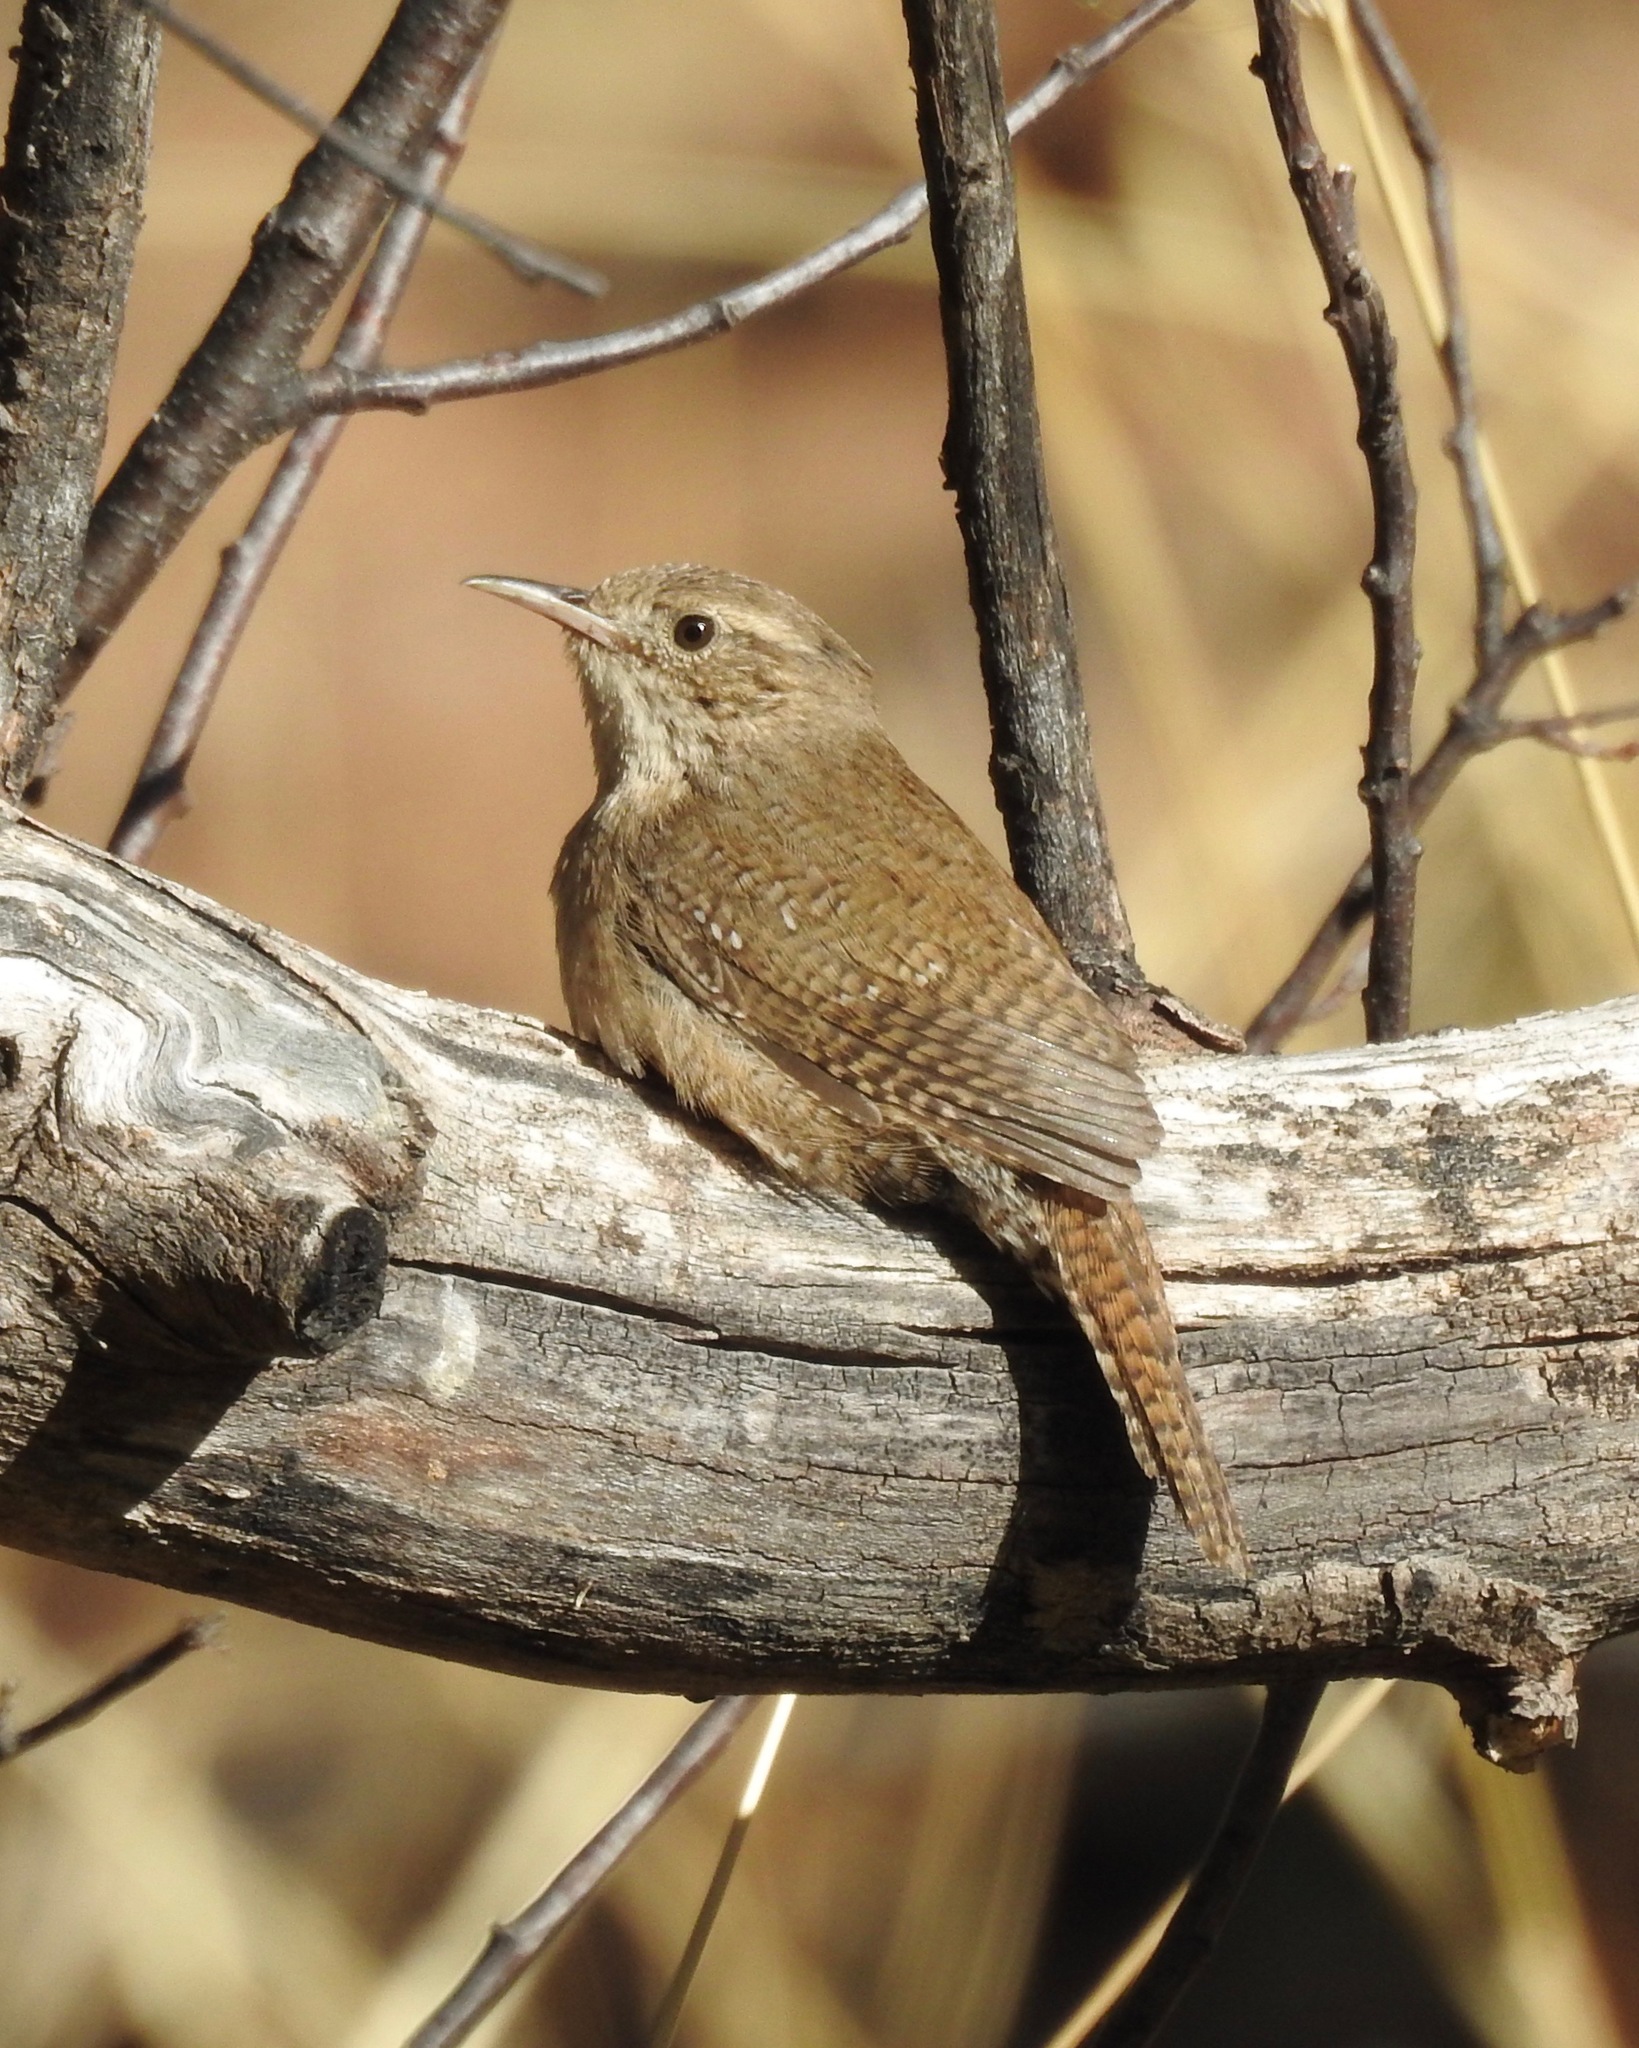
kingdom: Animalia
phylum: Chordata
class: Aves
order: Passeriformes
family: Troglodytidae
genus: Troglodytes
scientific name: Troglodytes aedon
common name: House wren
